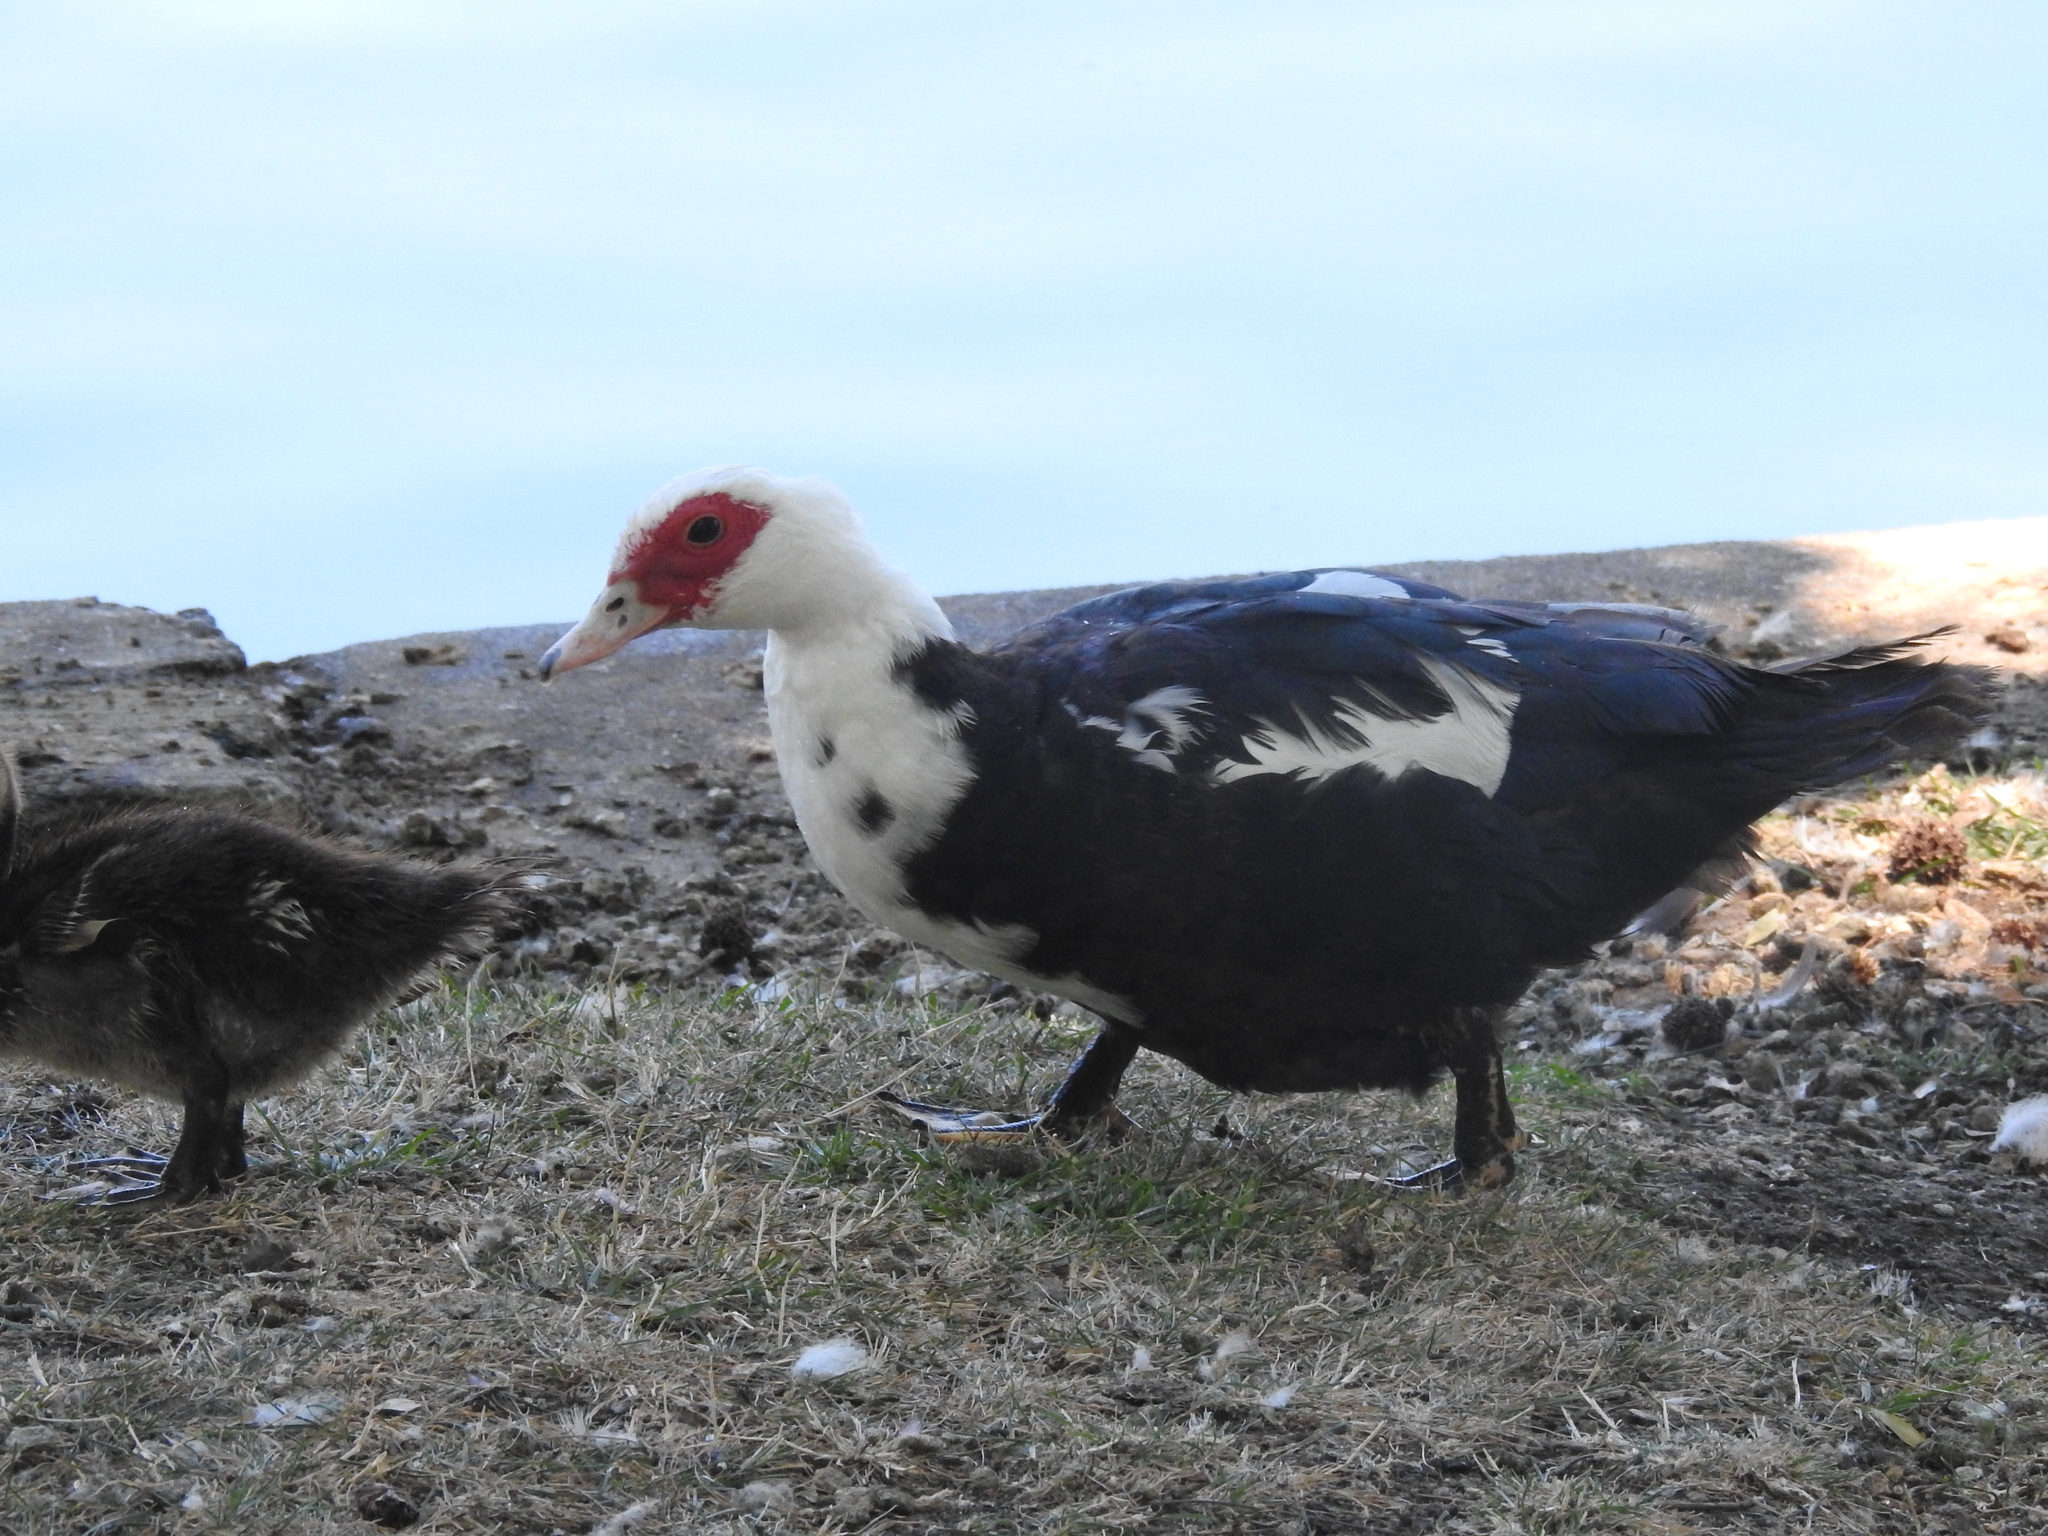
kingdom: Animalia
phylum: Chordata
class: Aves
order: Anseriformes
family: Anatidae
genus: Cairina
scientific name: Cairina moschata
